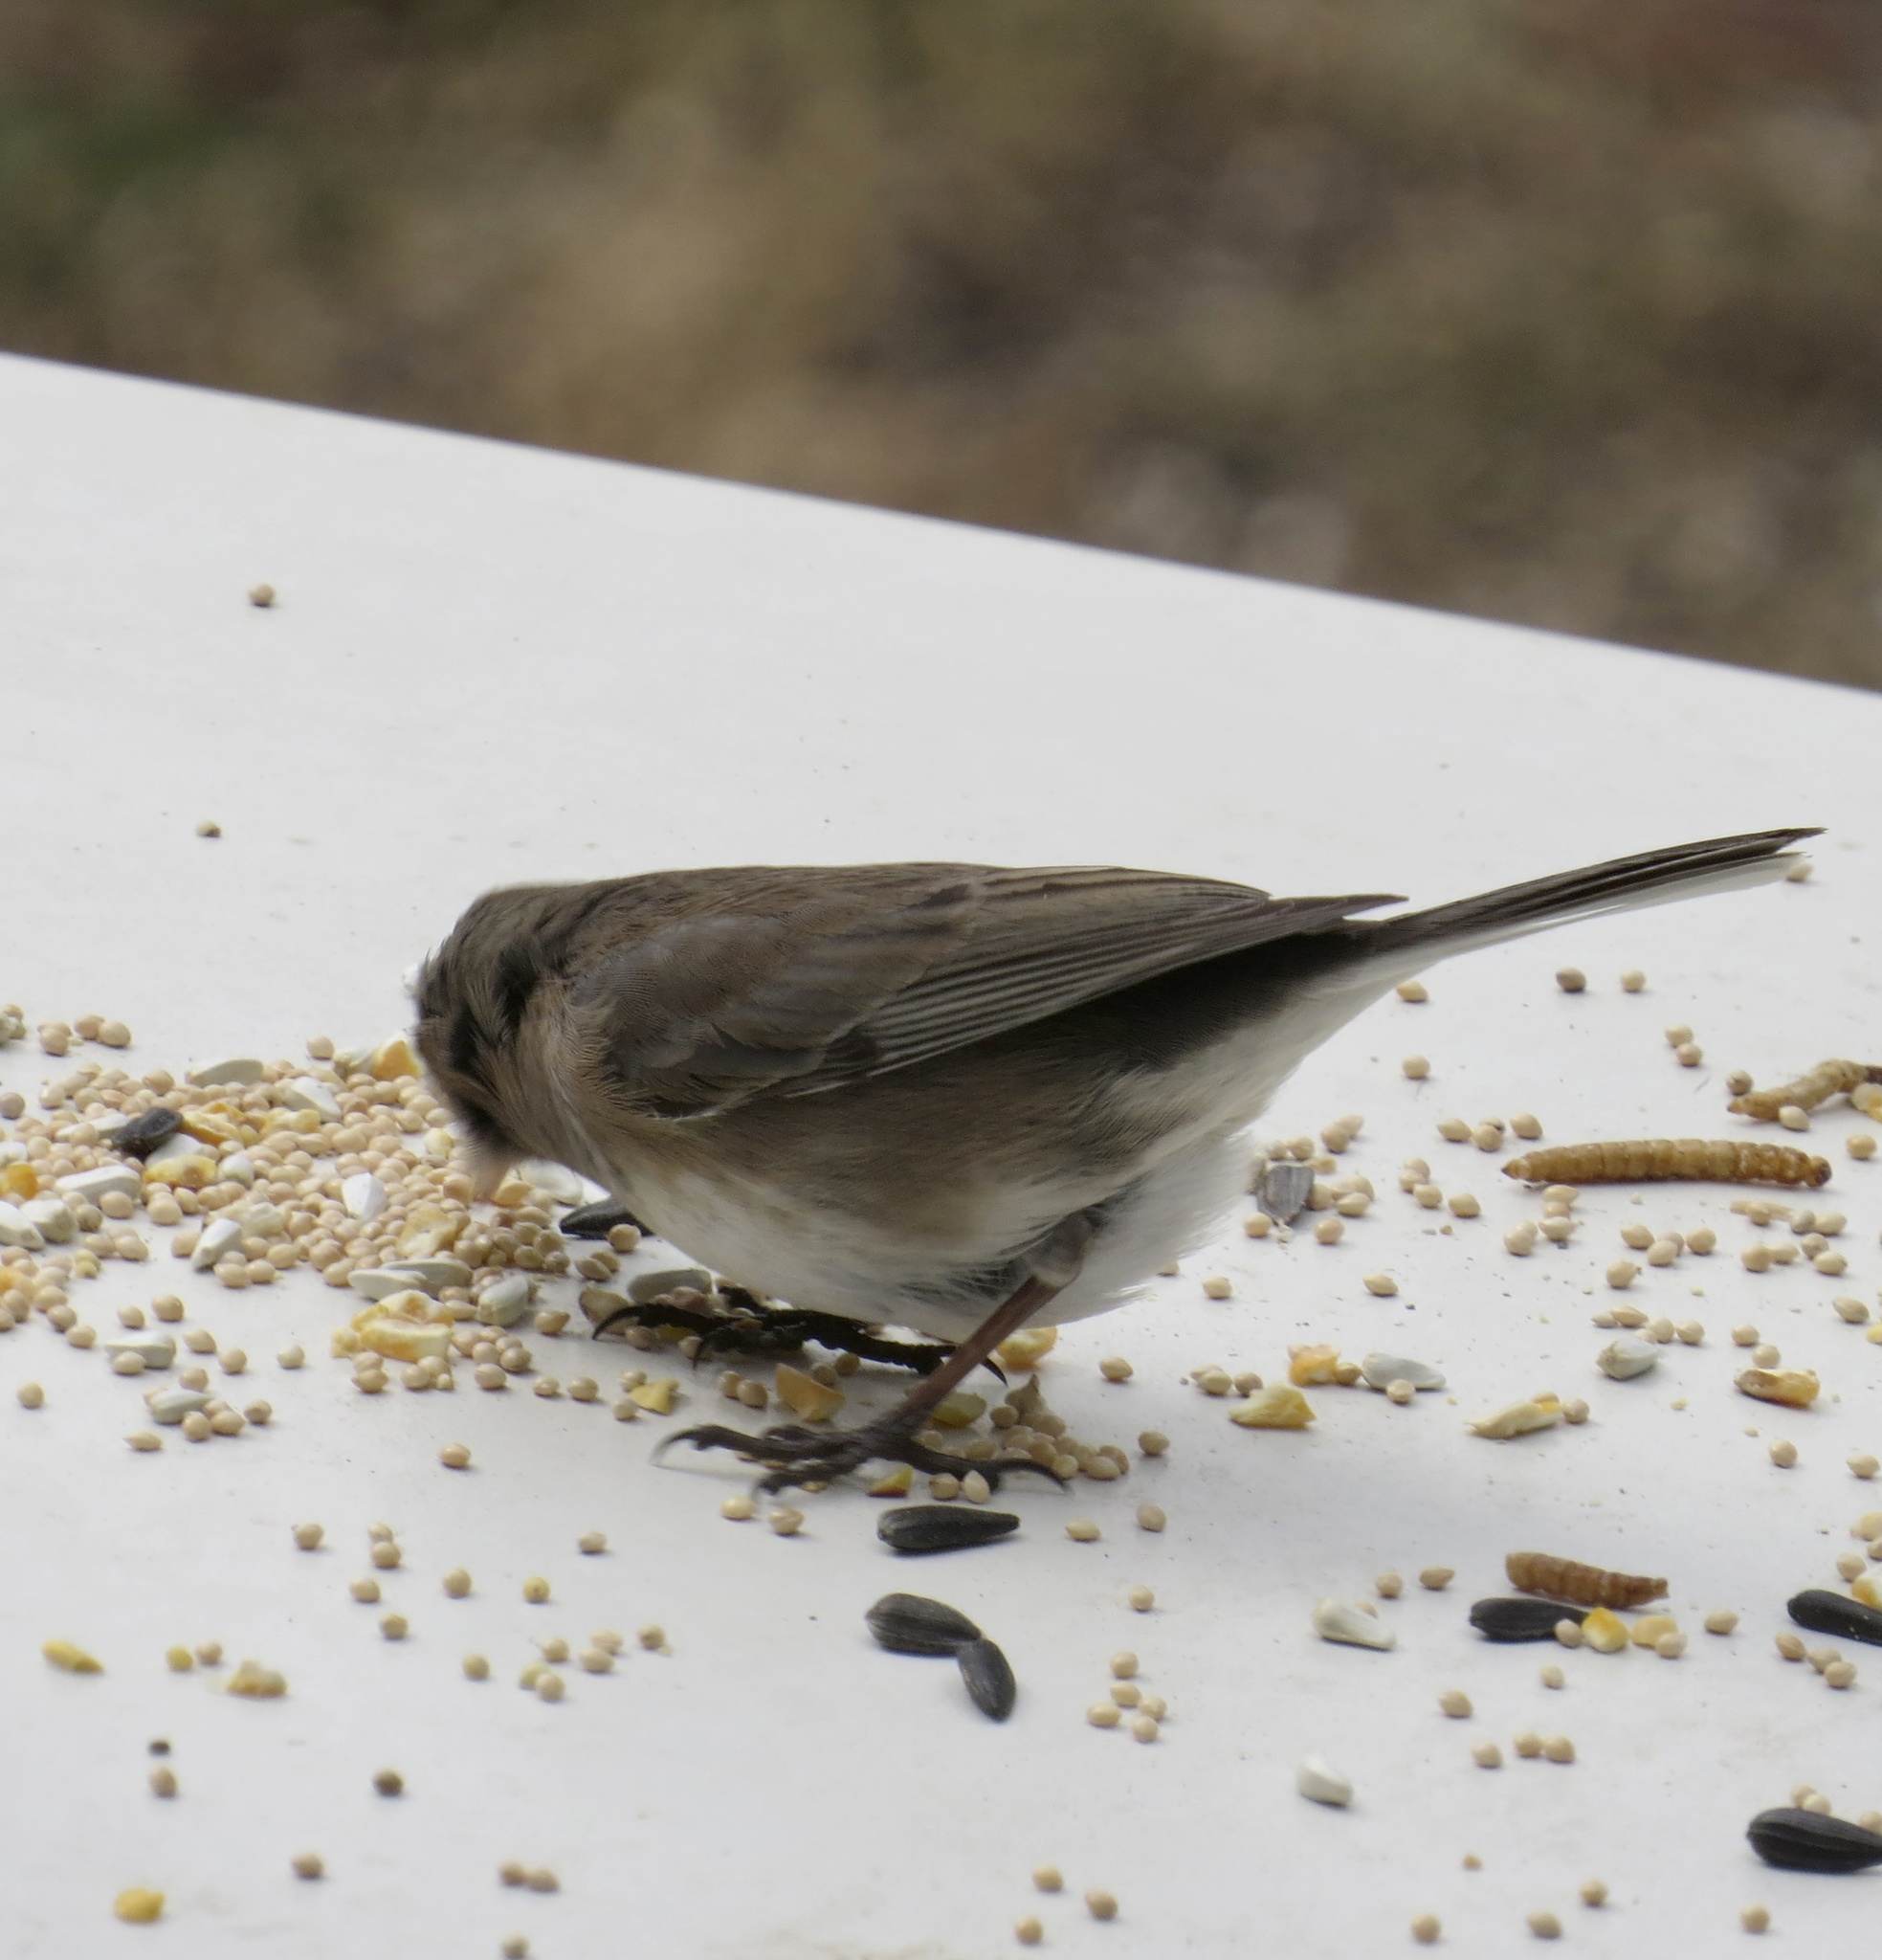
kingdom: Animalia
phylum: Chordata
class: Aves
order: Passeriformes
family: Passerellidae
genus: Junco
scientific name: Junco hyemalis
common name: Dark-eyed junco
